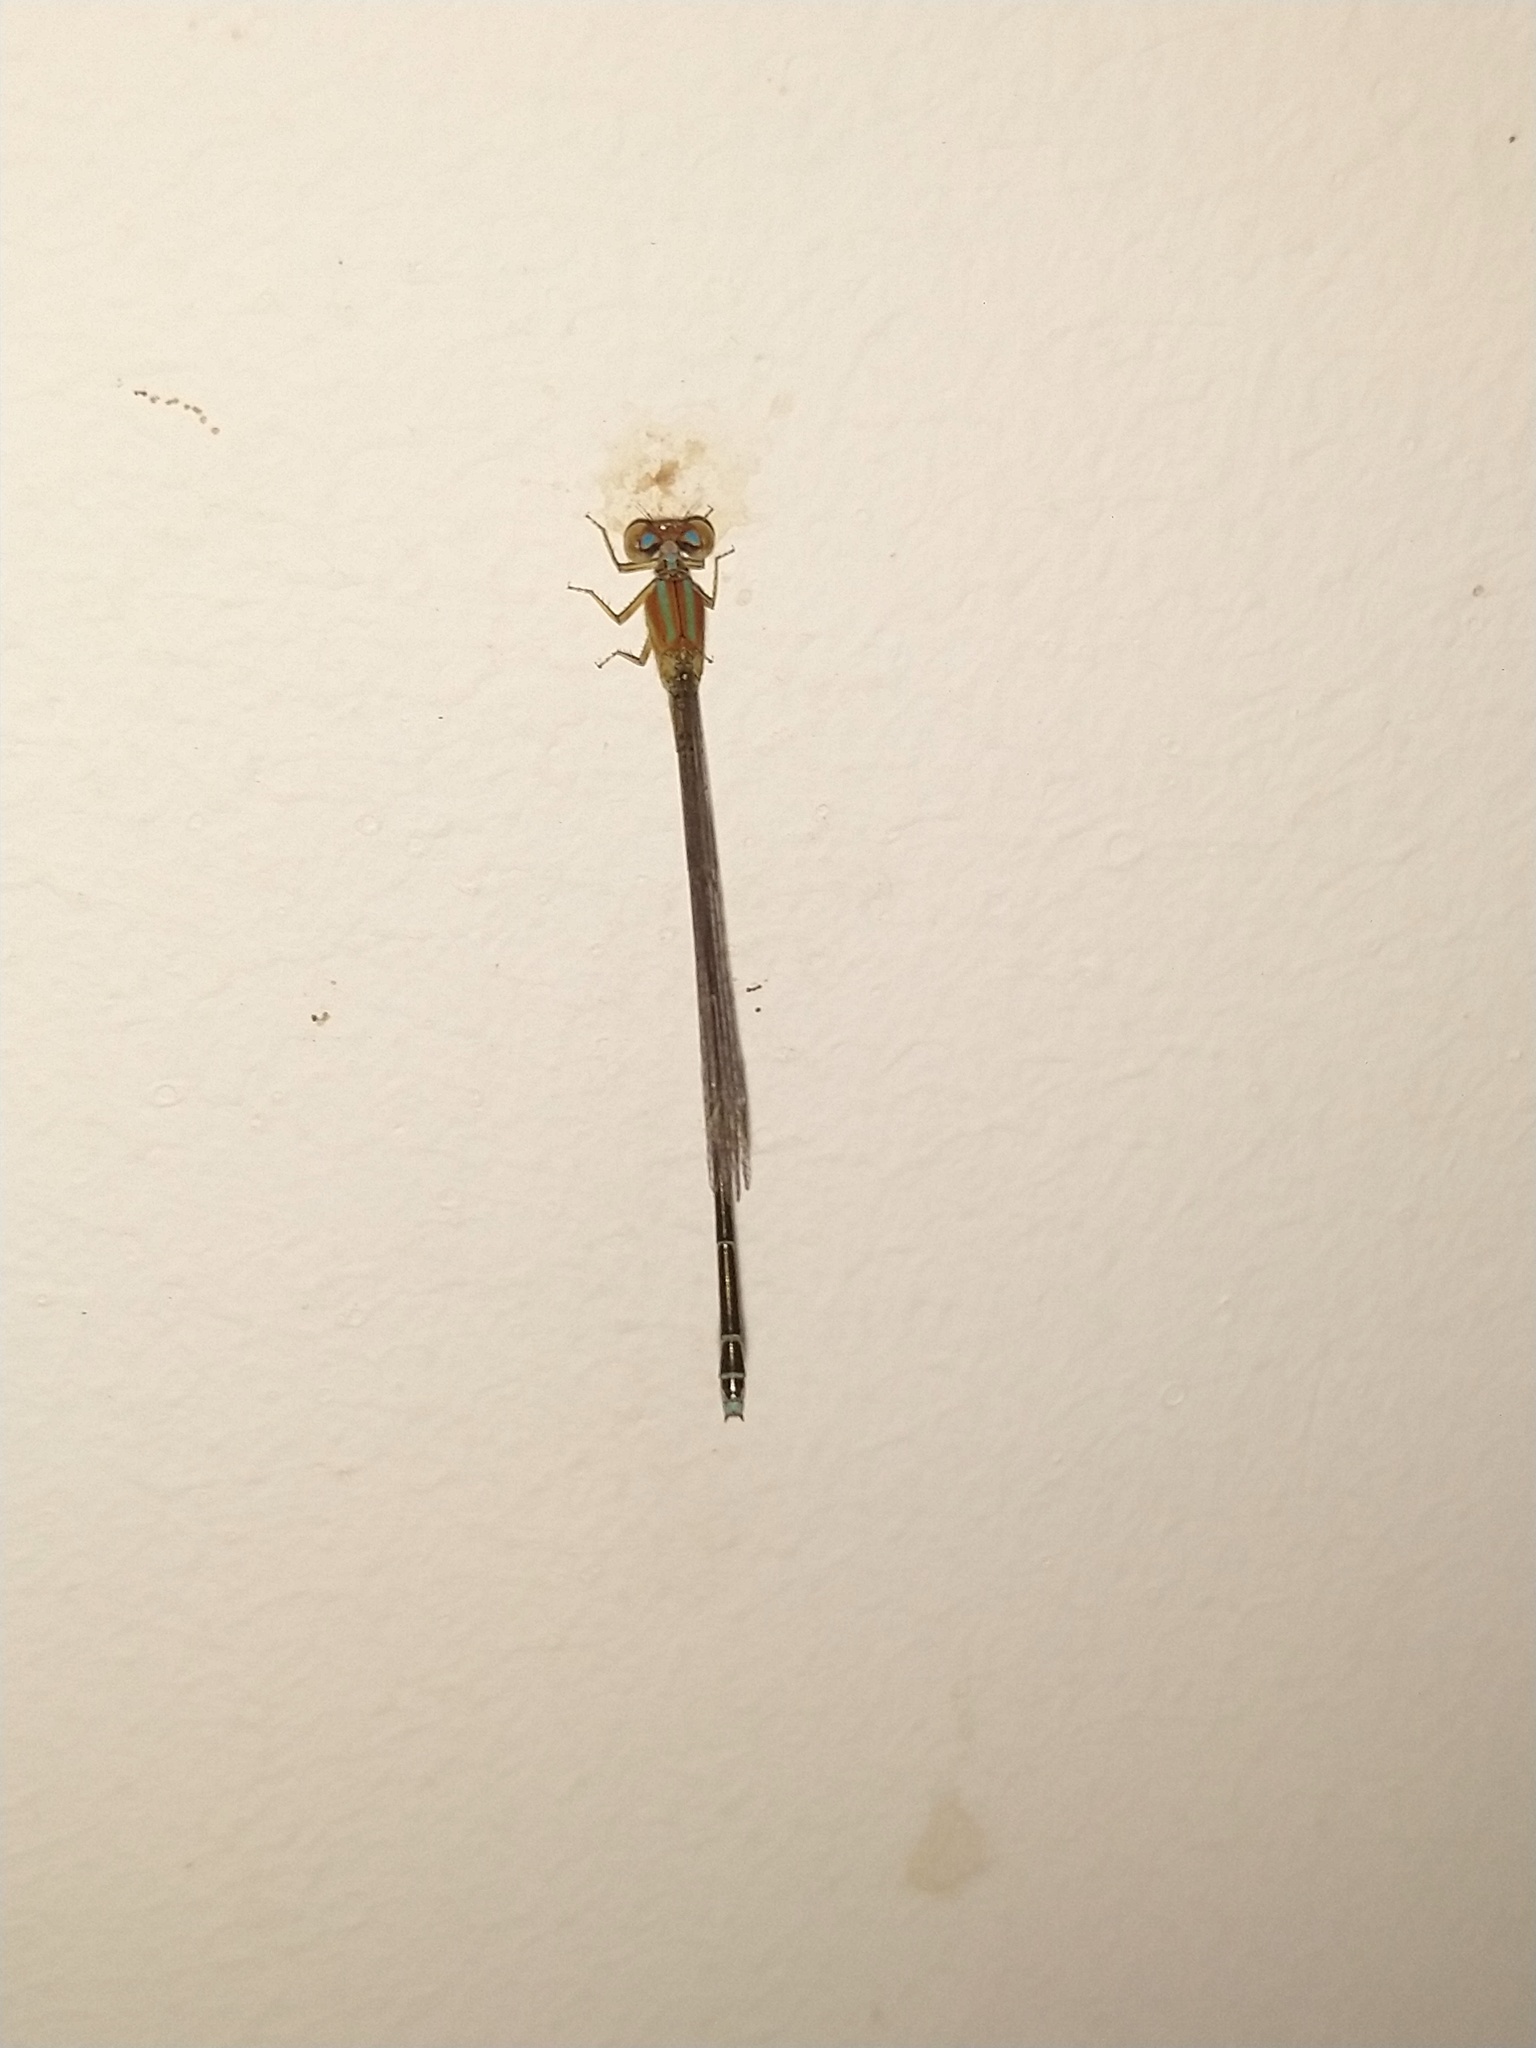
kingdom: Animalia
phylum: Arthropoda
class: Insecta
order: Odonata
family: Coenagrionidae
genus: Pseudagrion
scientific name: Pseudagrion microcephalum
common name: Blue riverdamsel
